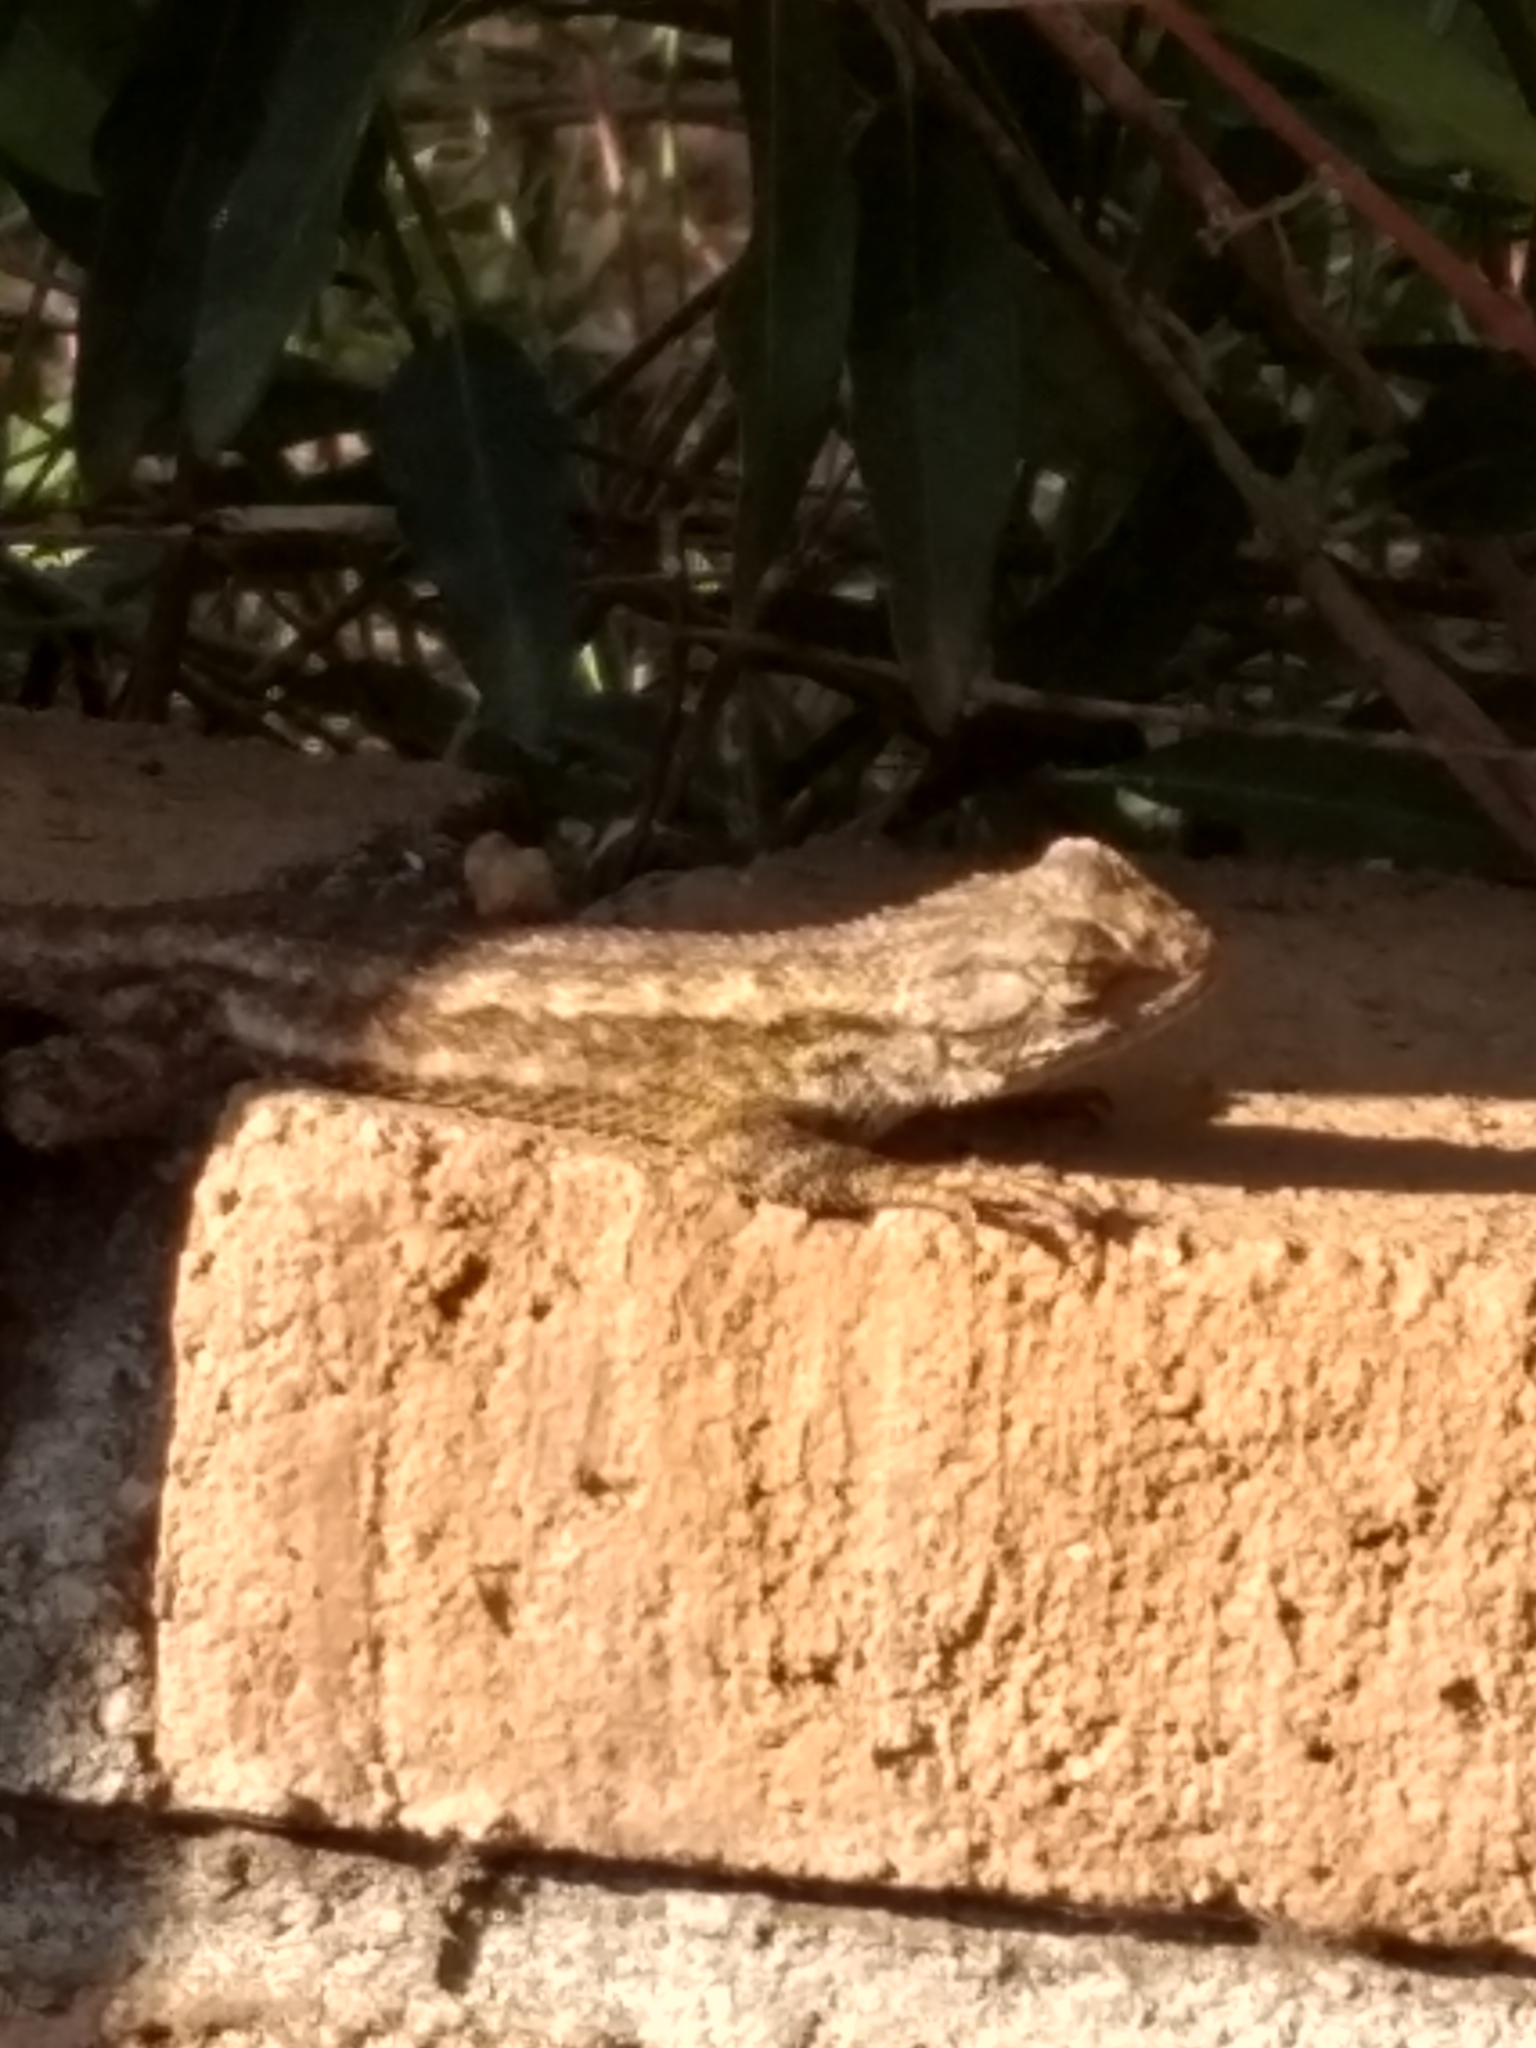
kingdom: Animalia
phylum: Chordata
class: Squamata
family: Phrynosomatidae
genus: Sceloporus
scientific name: Sceloporus occidentalis
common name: Western fence lizard
